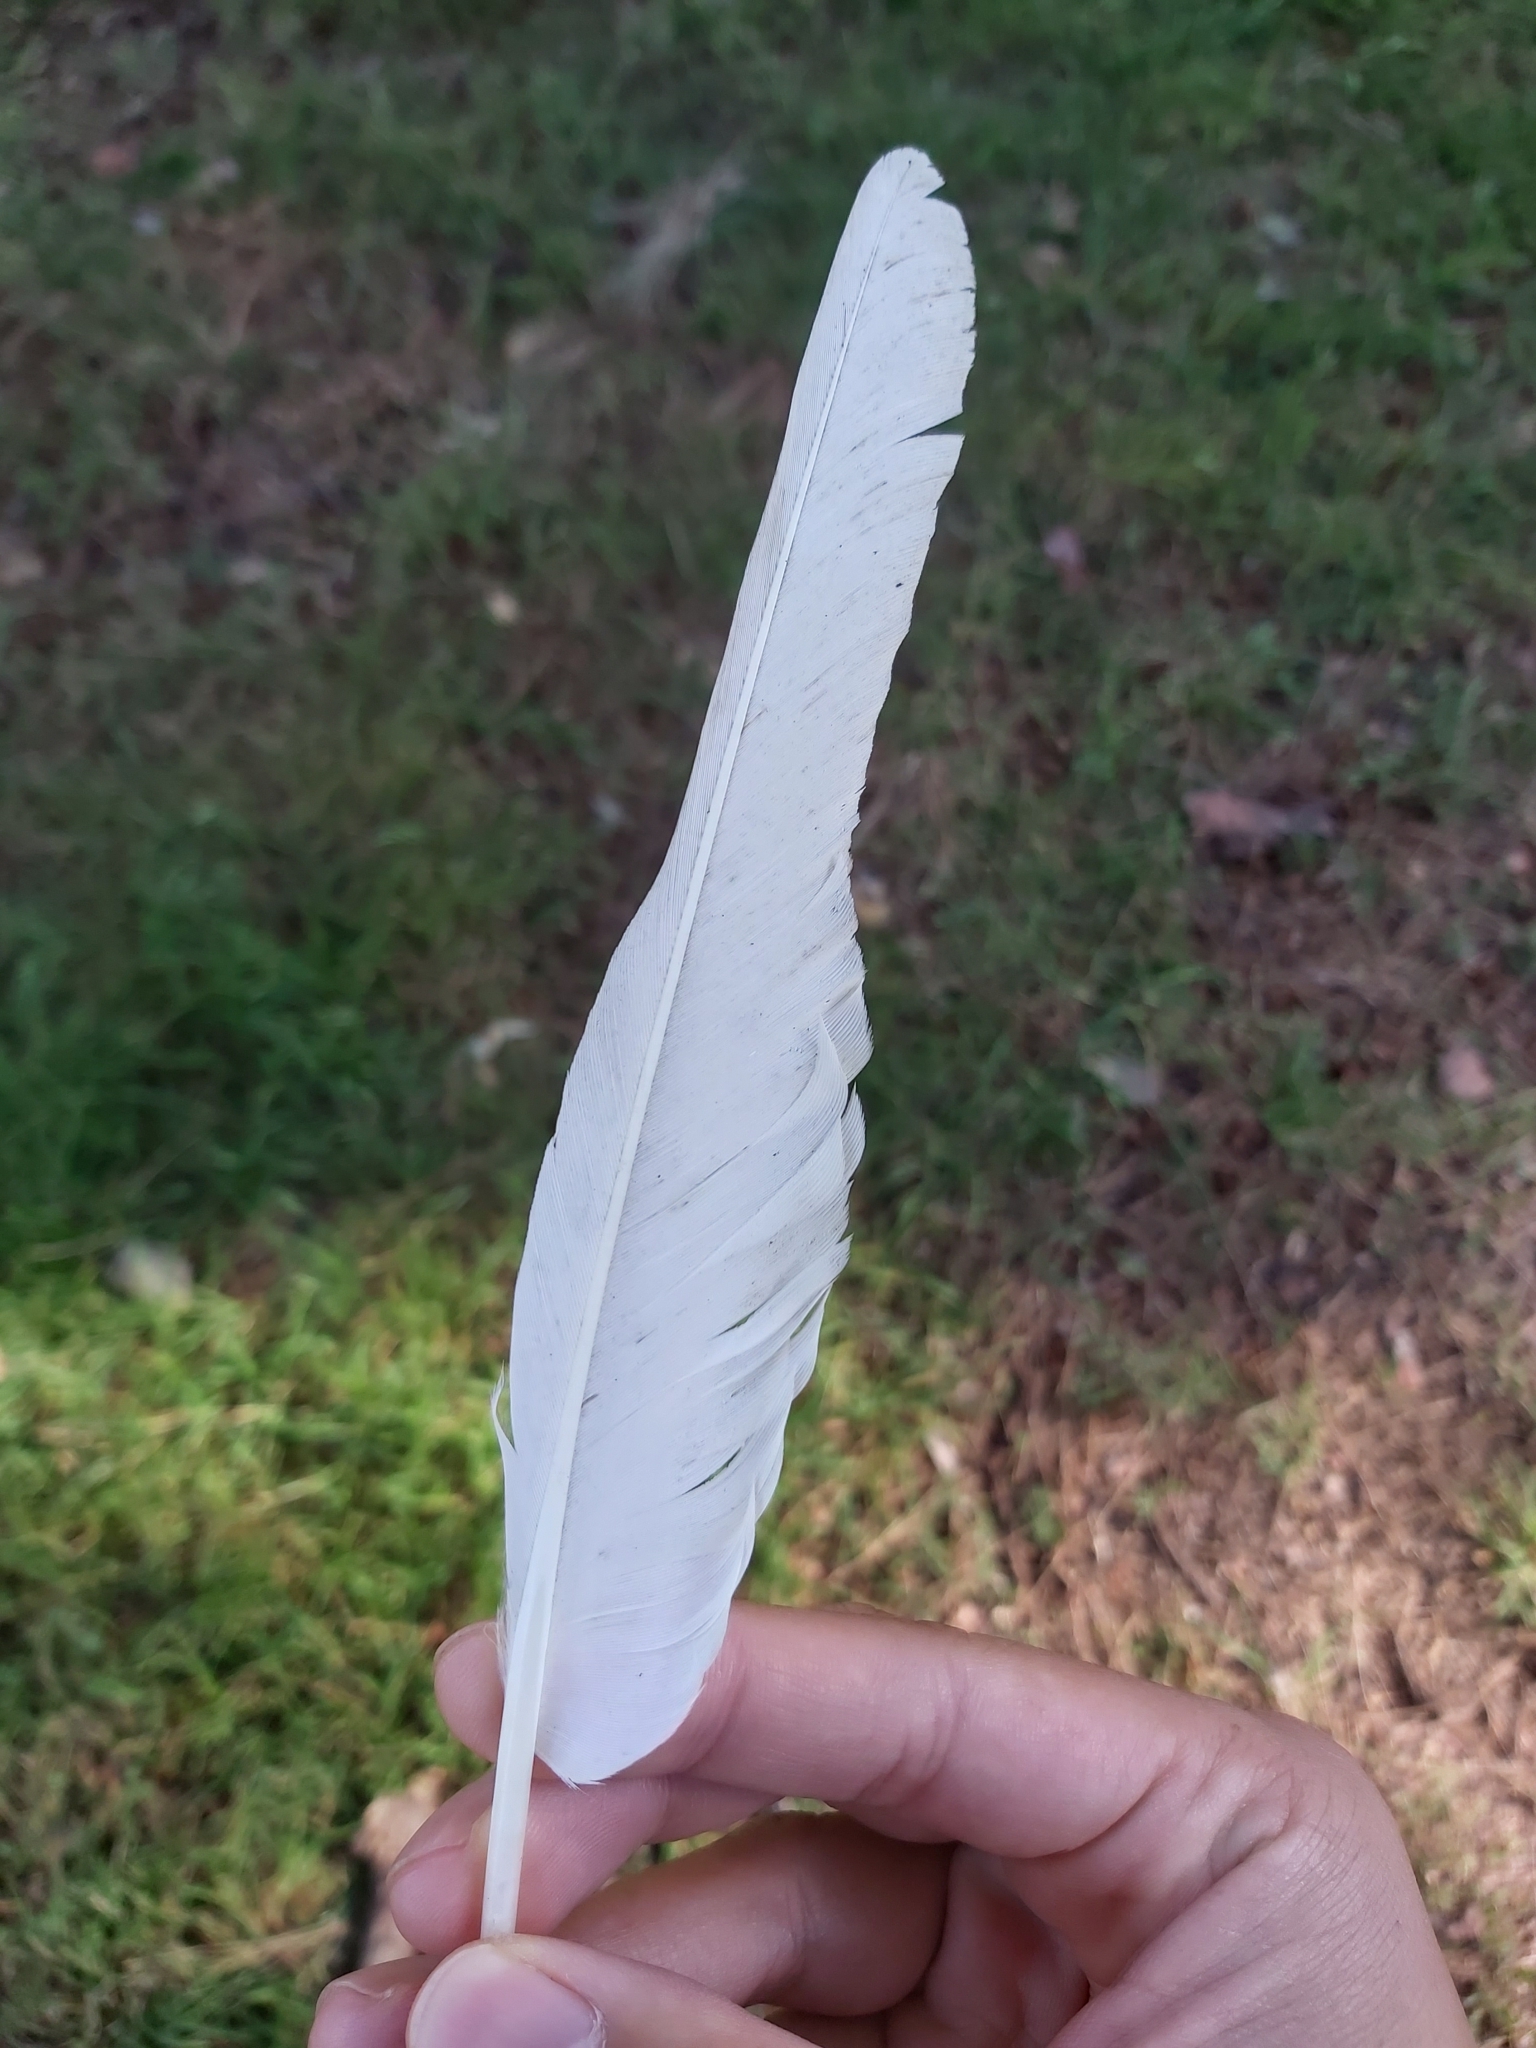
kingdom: Animalia
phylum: Chordata
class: Aves
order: Psittaciformes
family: Psittacidae
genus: Cacatua
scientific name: Cacatua galerita
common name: Sulphur-crested cockatoo
